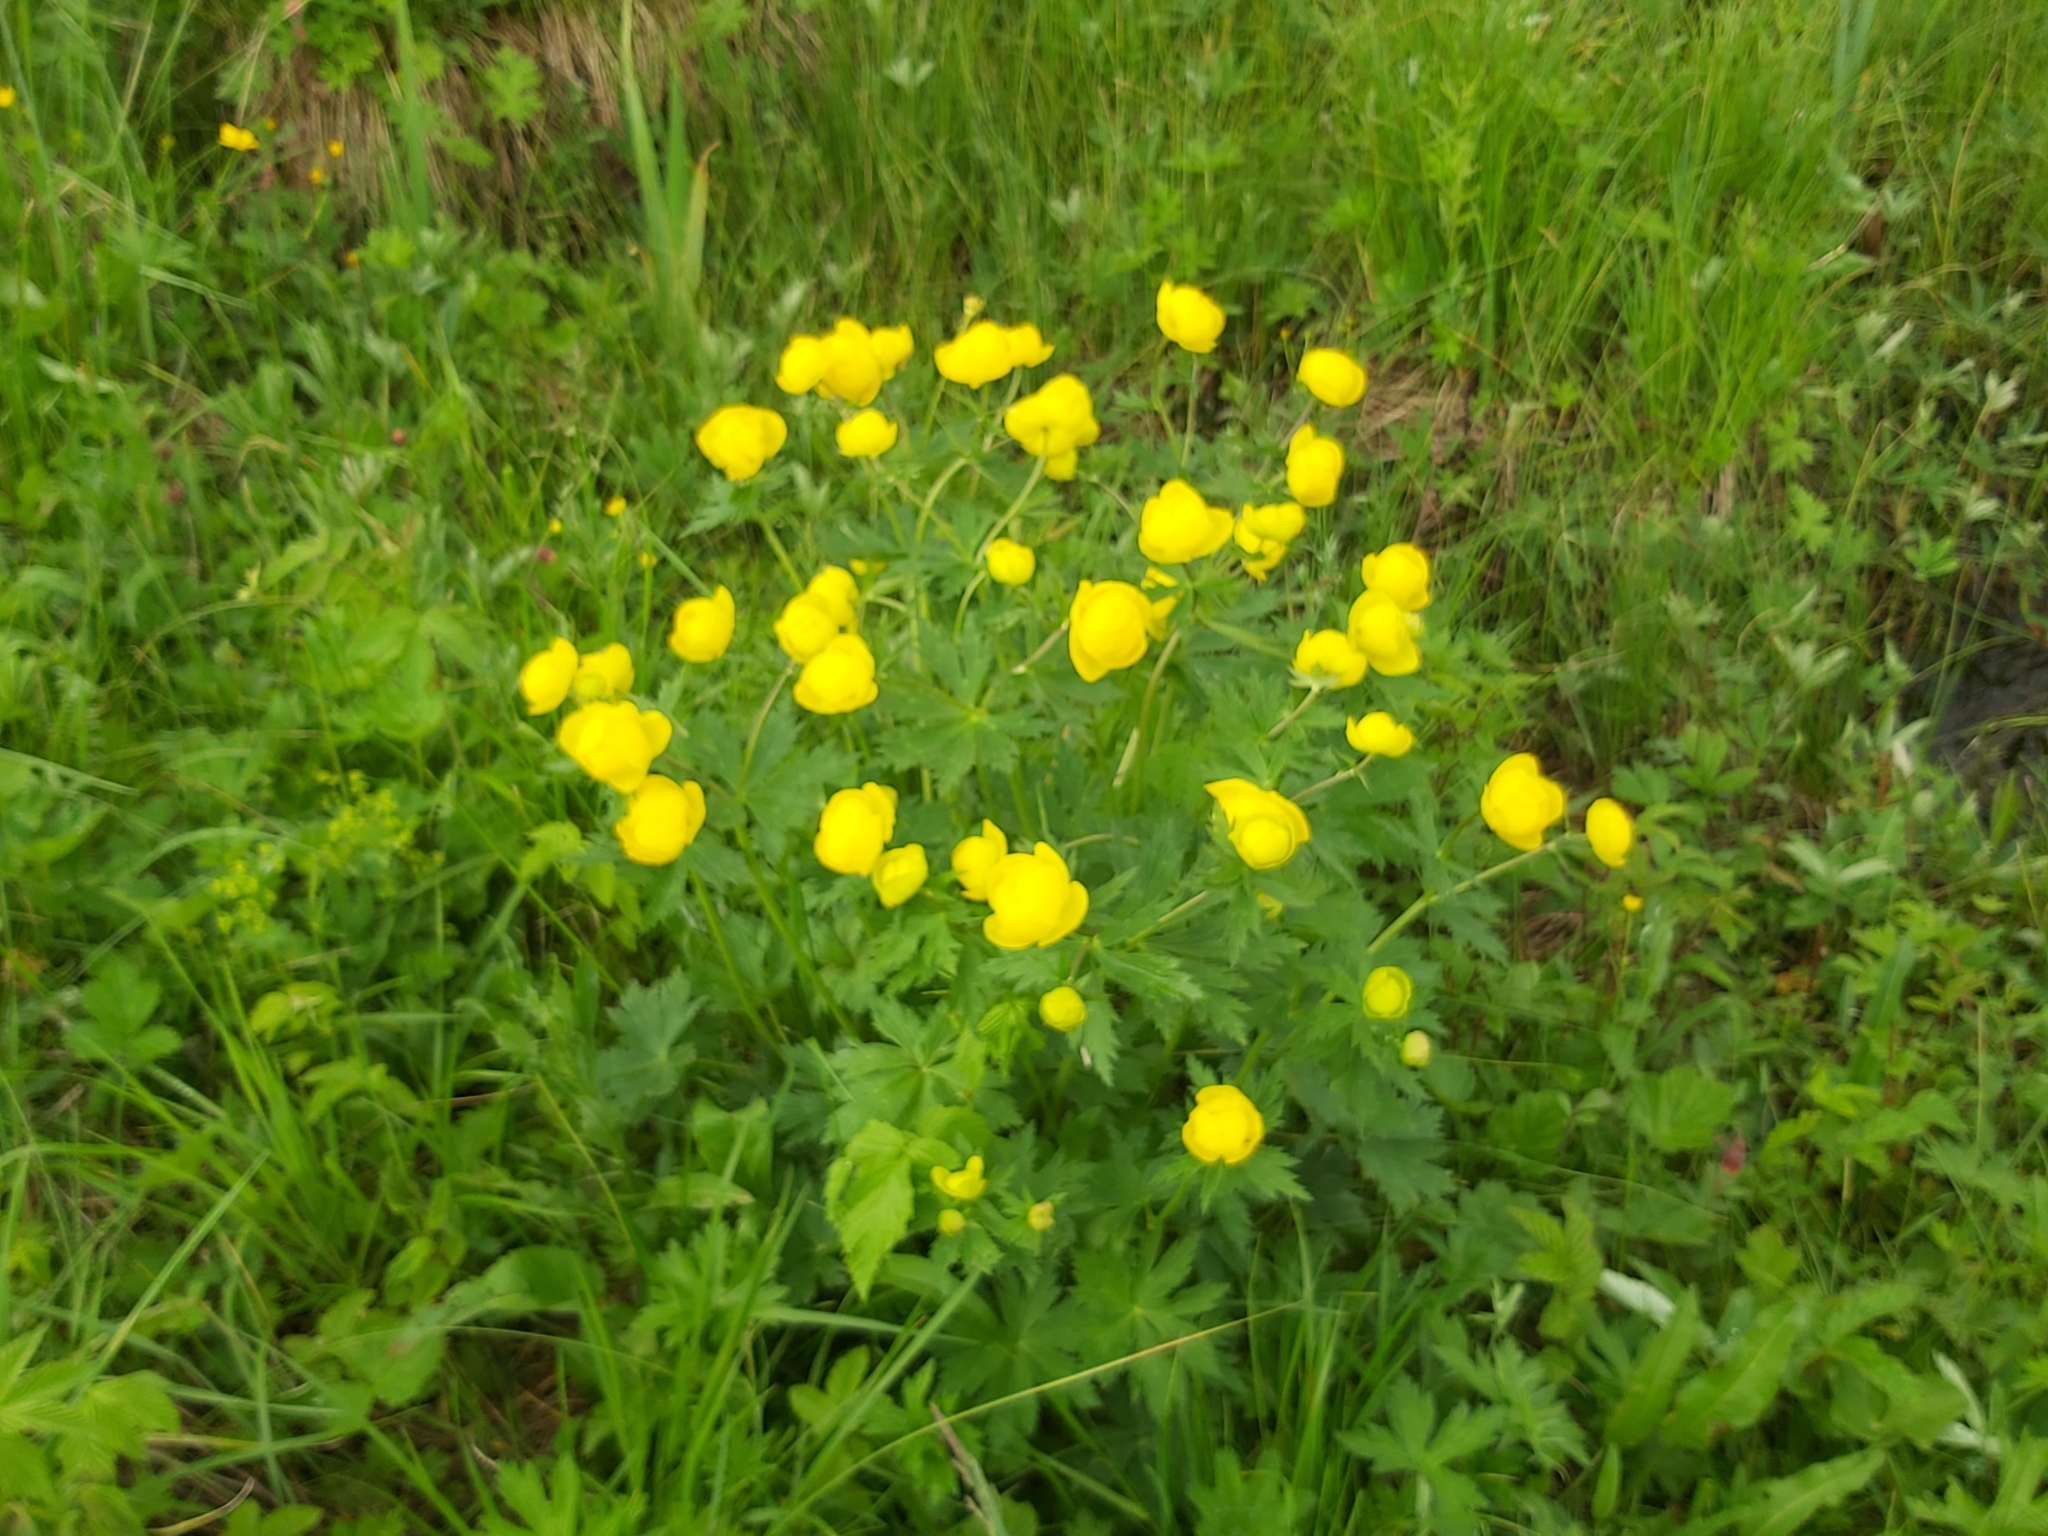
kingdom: Plantae
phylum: Tracheophyta
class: Magnoliopsida
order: Ranunculales
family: Ranunculaceae
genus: Trollius
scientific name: Trollius europaeus
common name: European globeflower
